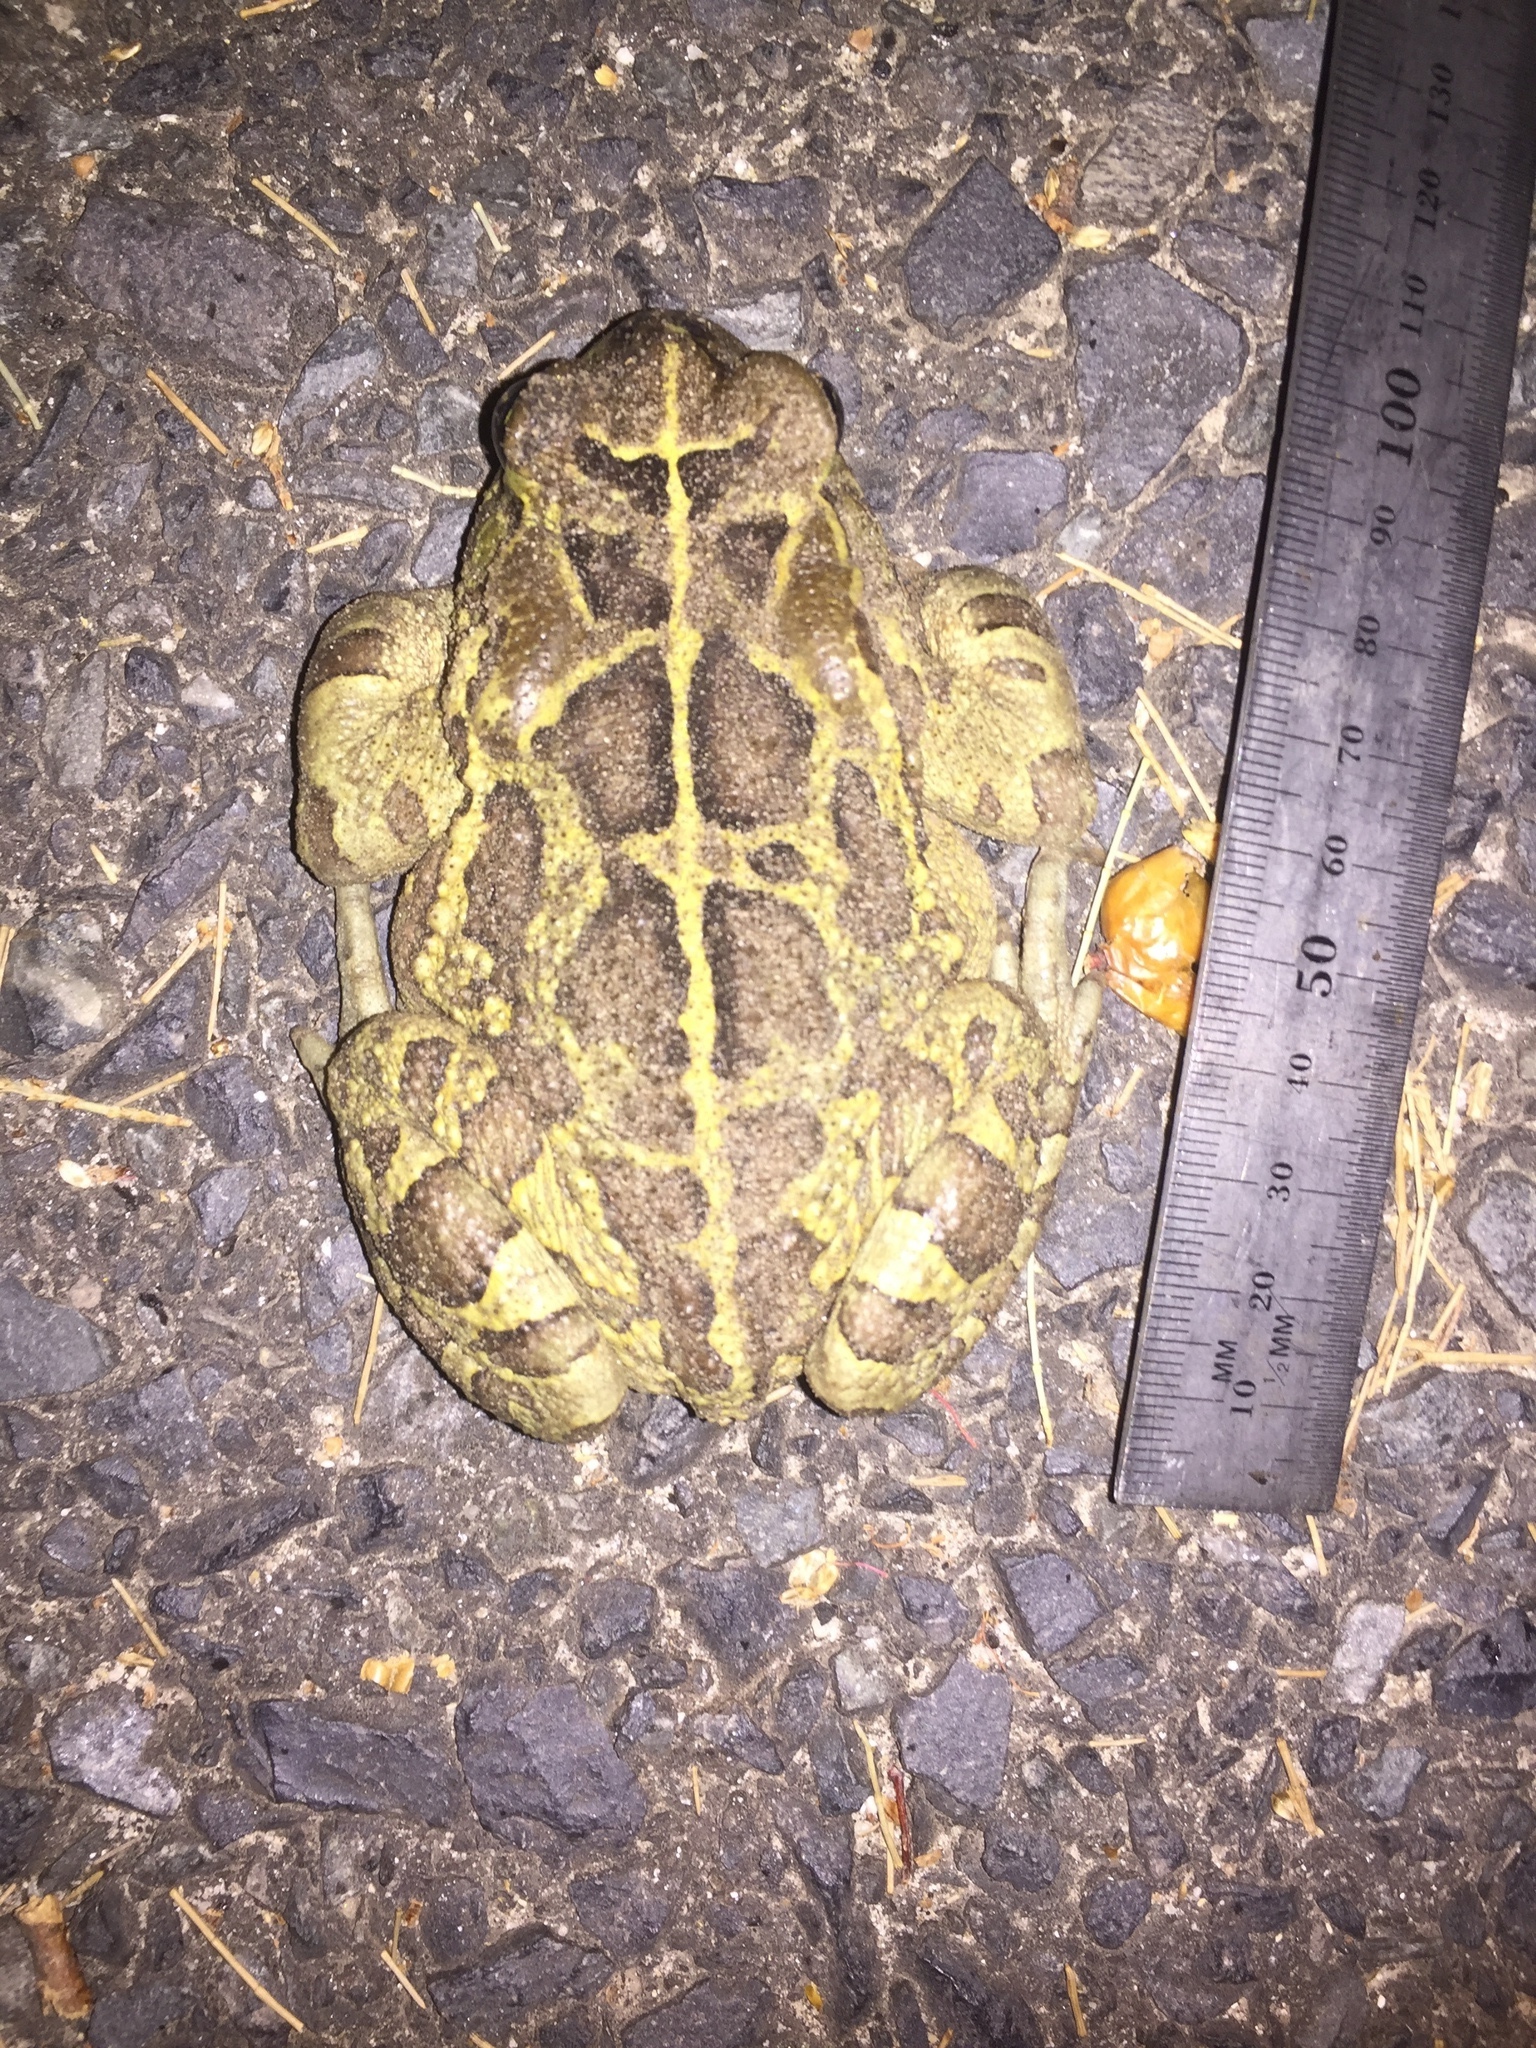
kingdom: Animalia
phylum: Chordata
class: Amphibia
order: Anura
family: Bufonidae
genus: Sclerophrys
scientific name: Sclerophrys pantherina
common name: Panther toad
